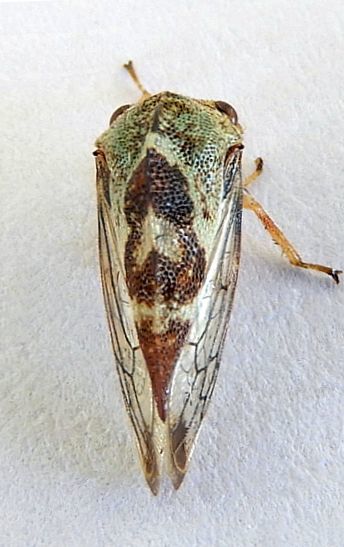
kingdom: Animalia
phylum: Arthropoda
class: Insecta
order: Hemiptera
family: Membracidae
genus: Grandolobus
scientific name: Grandolobus grandis
